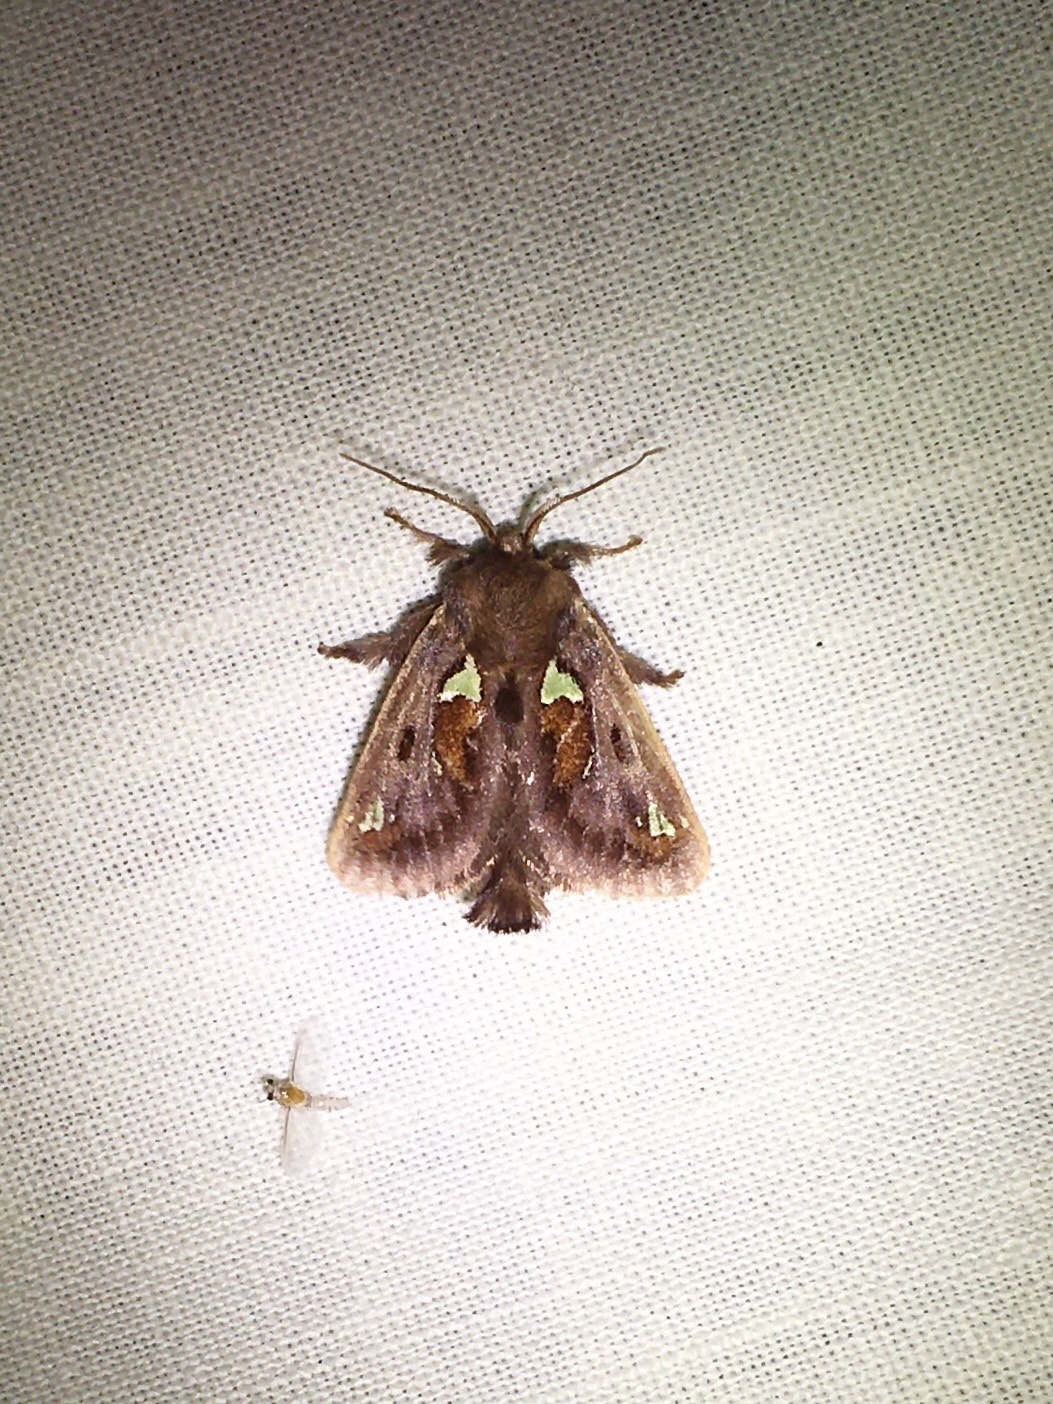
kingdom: Animalia
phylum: Arthropoda
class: Insecta
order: Lepidoptera
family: Limacodidae
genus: Euclea
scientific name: Euclea delphinii
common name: Spiny oak-slug moth
